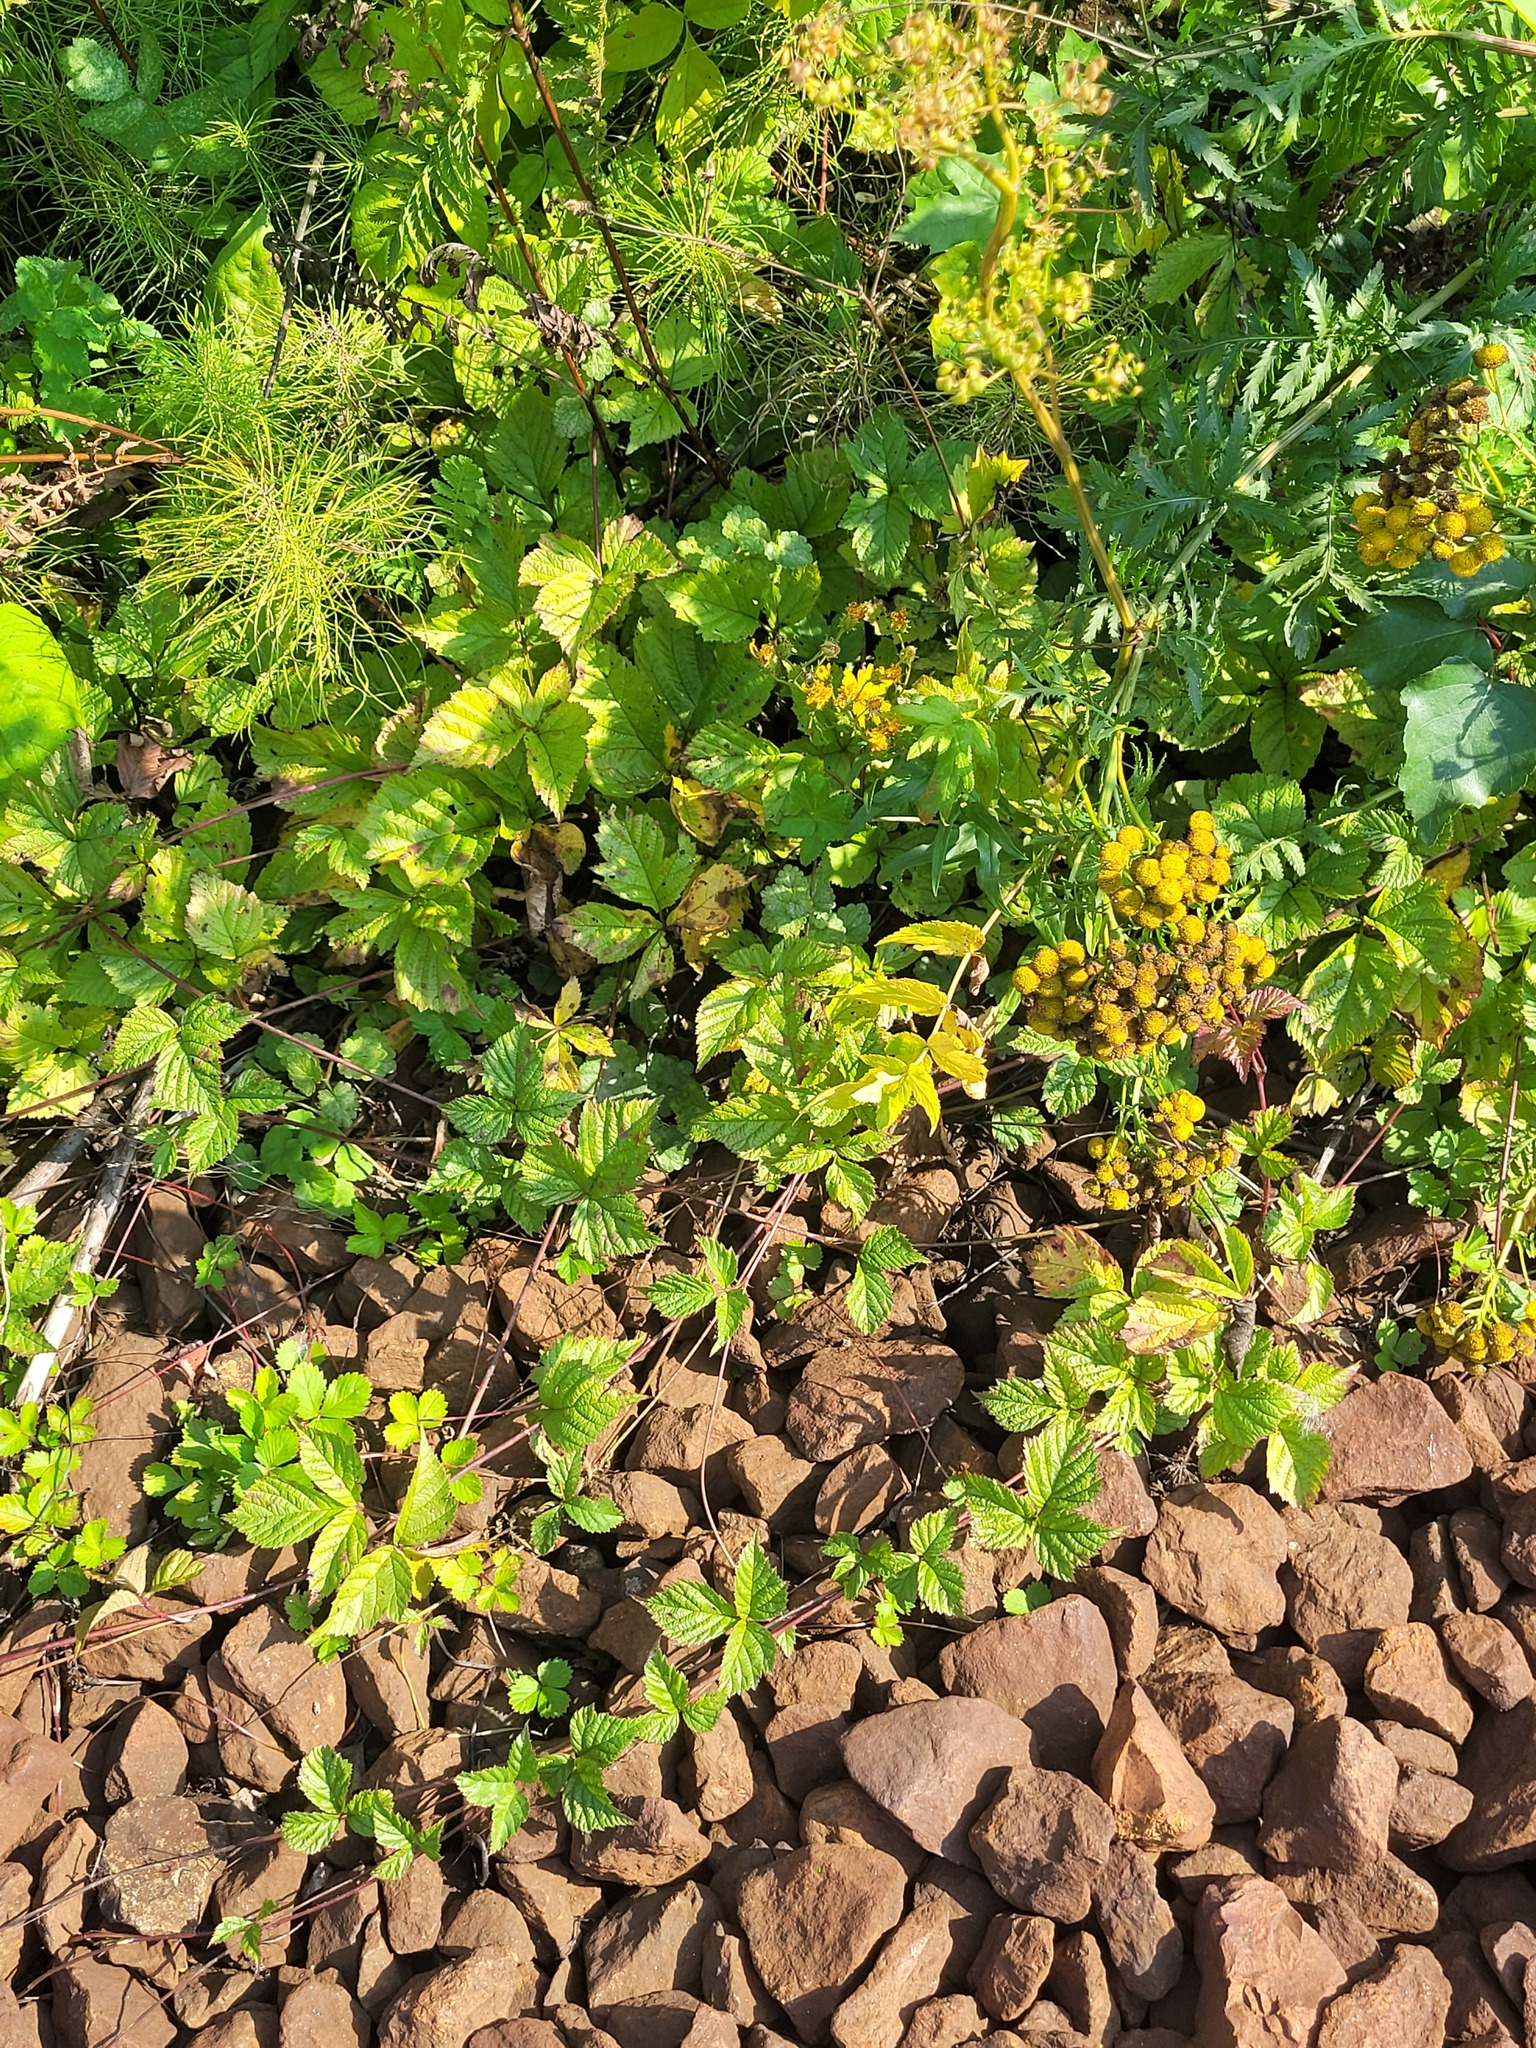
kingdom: Plantae
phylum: Tracheophyta
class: Magnoliopsida
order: Rosales
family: Rosaceae
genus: Rubus
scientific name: Rubus saxatilis
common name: Stone bramble
